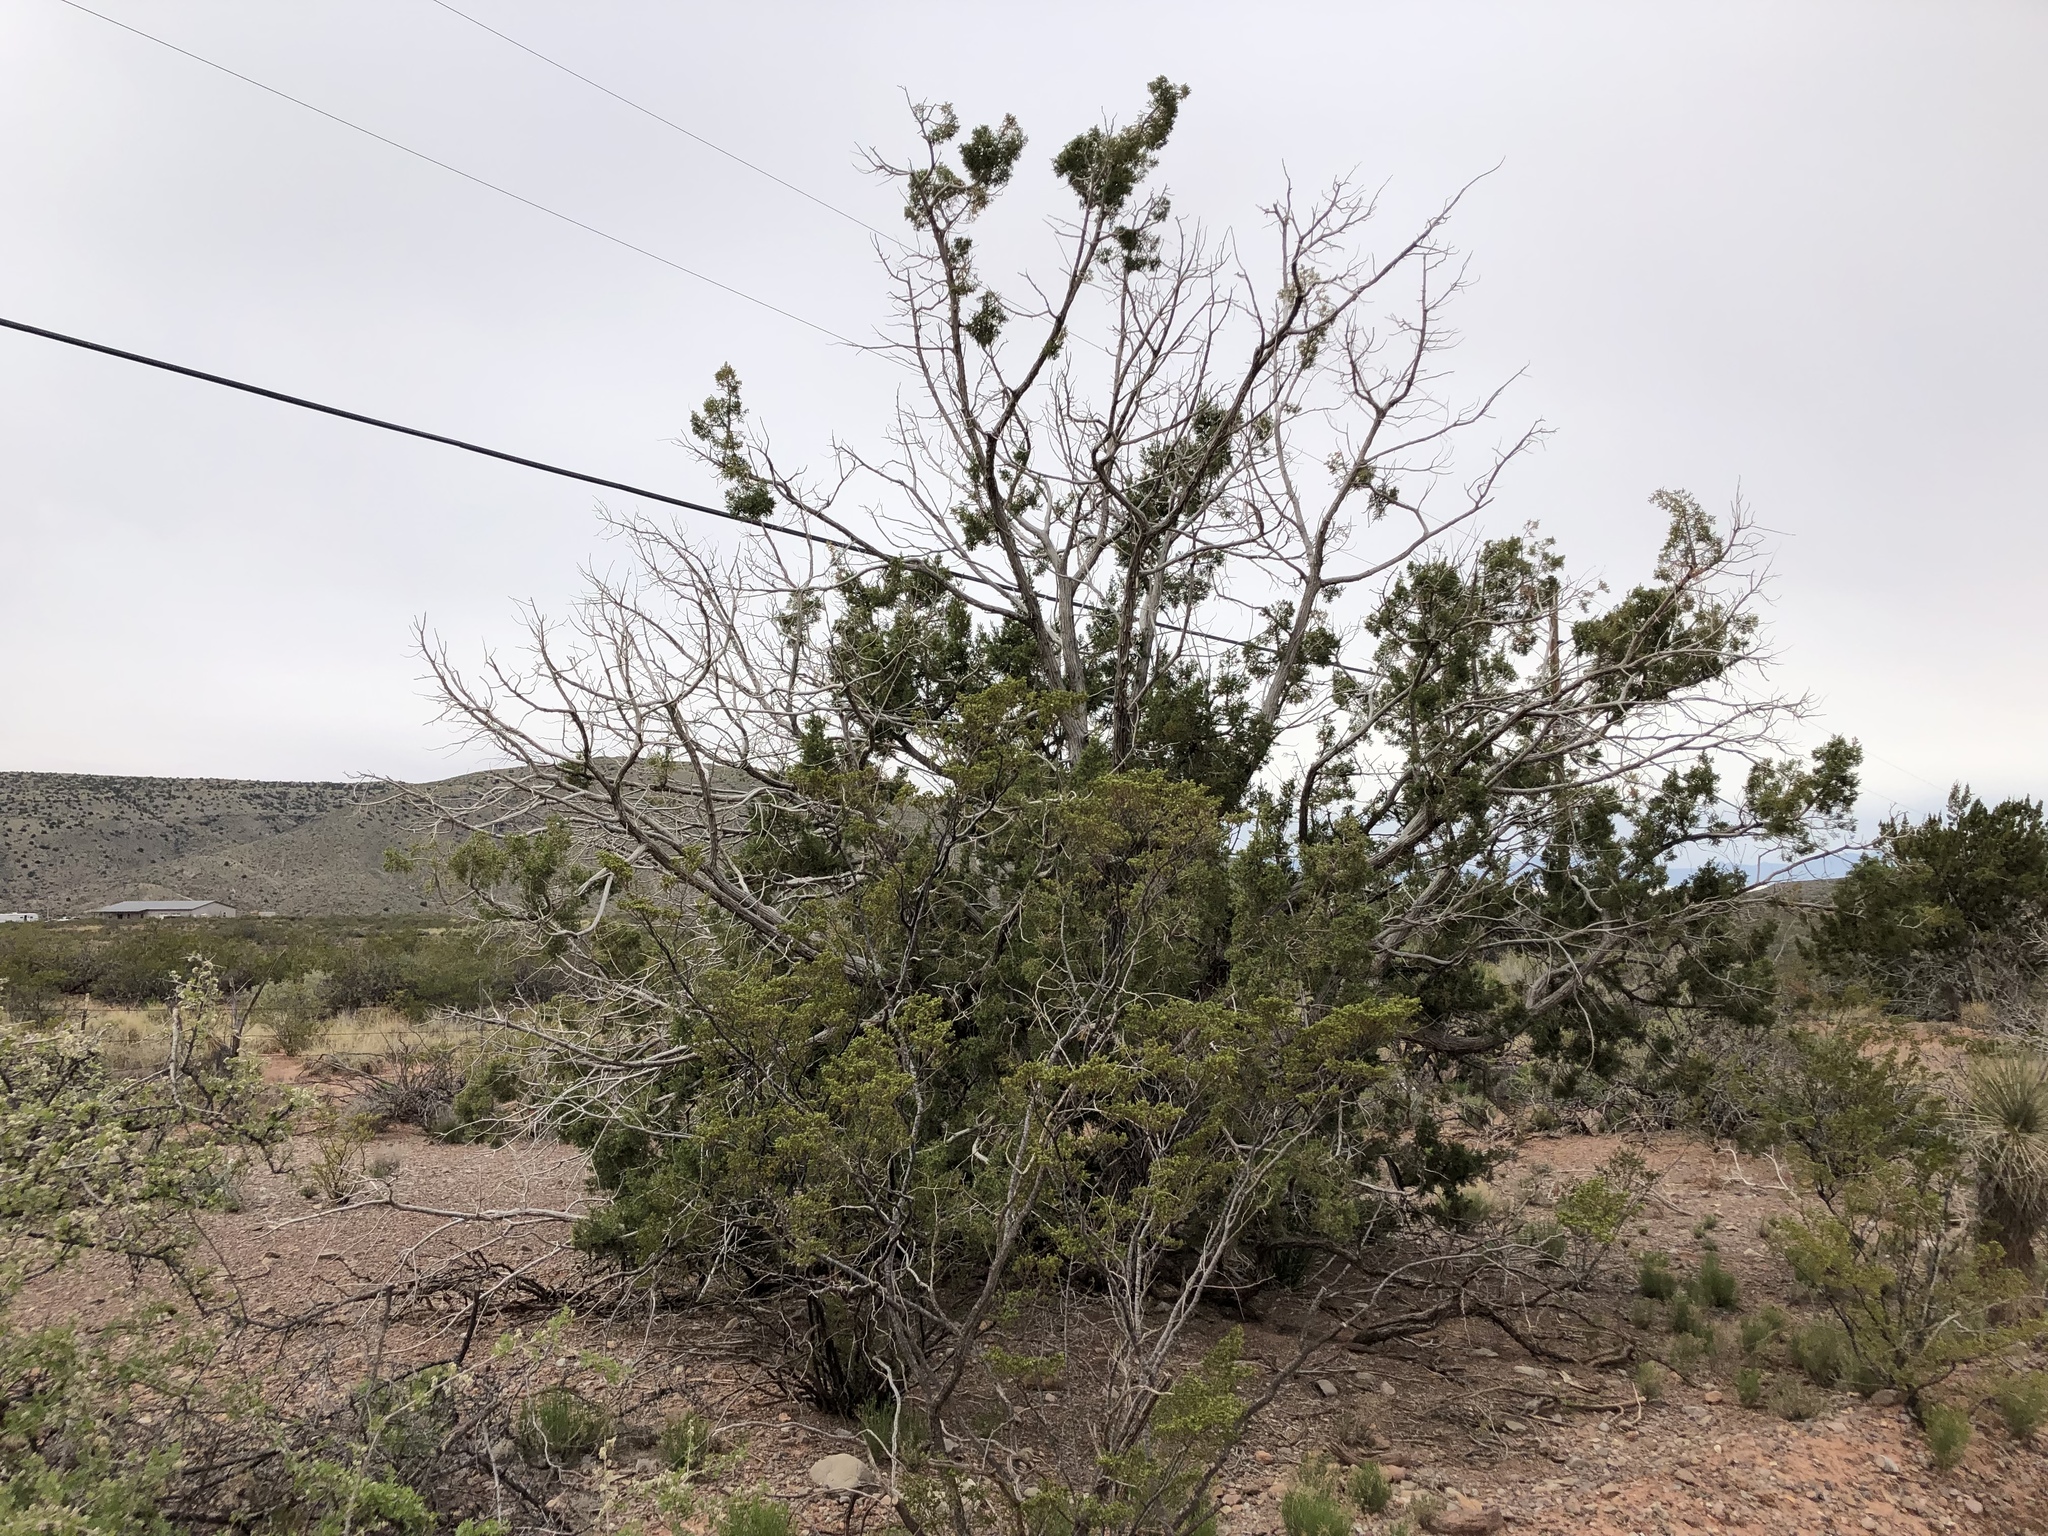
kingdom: Plantae
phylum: Tracheophyta
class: Pinopsida
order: Pinales
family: Cupressaceae
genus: Juniperus
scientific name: Juniperus monosperma
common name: One-seed juniper
